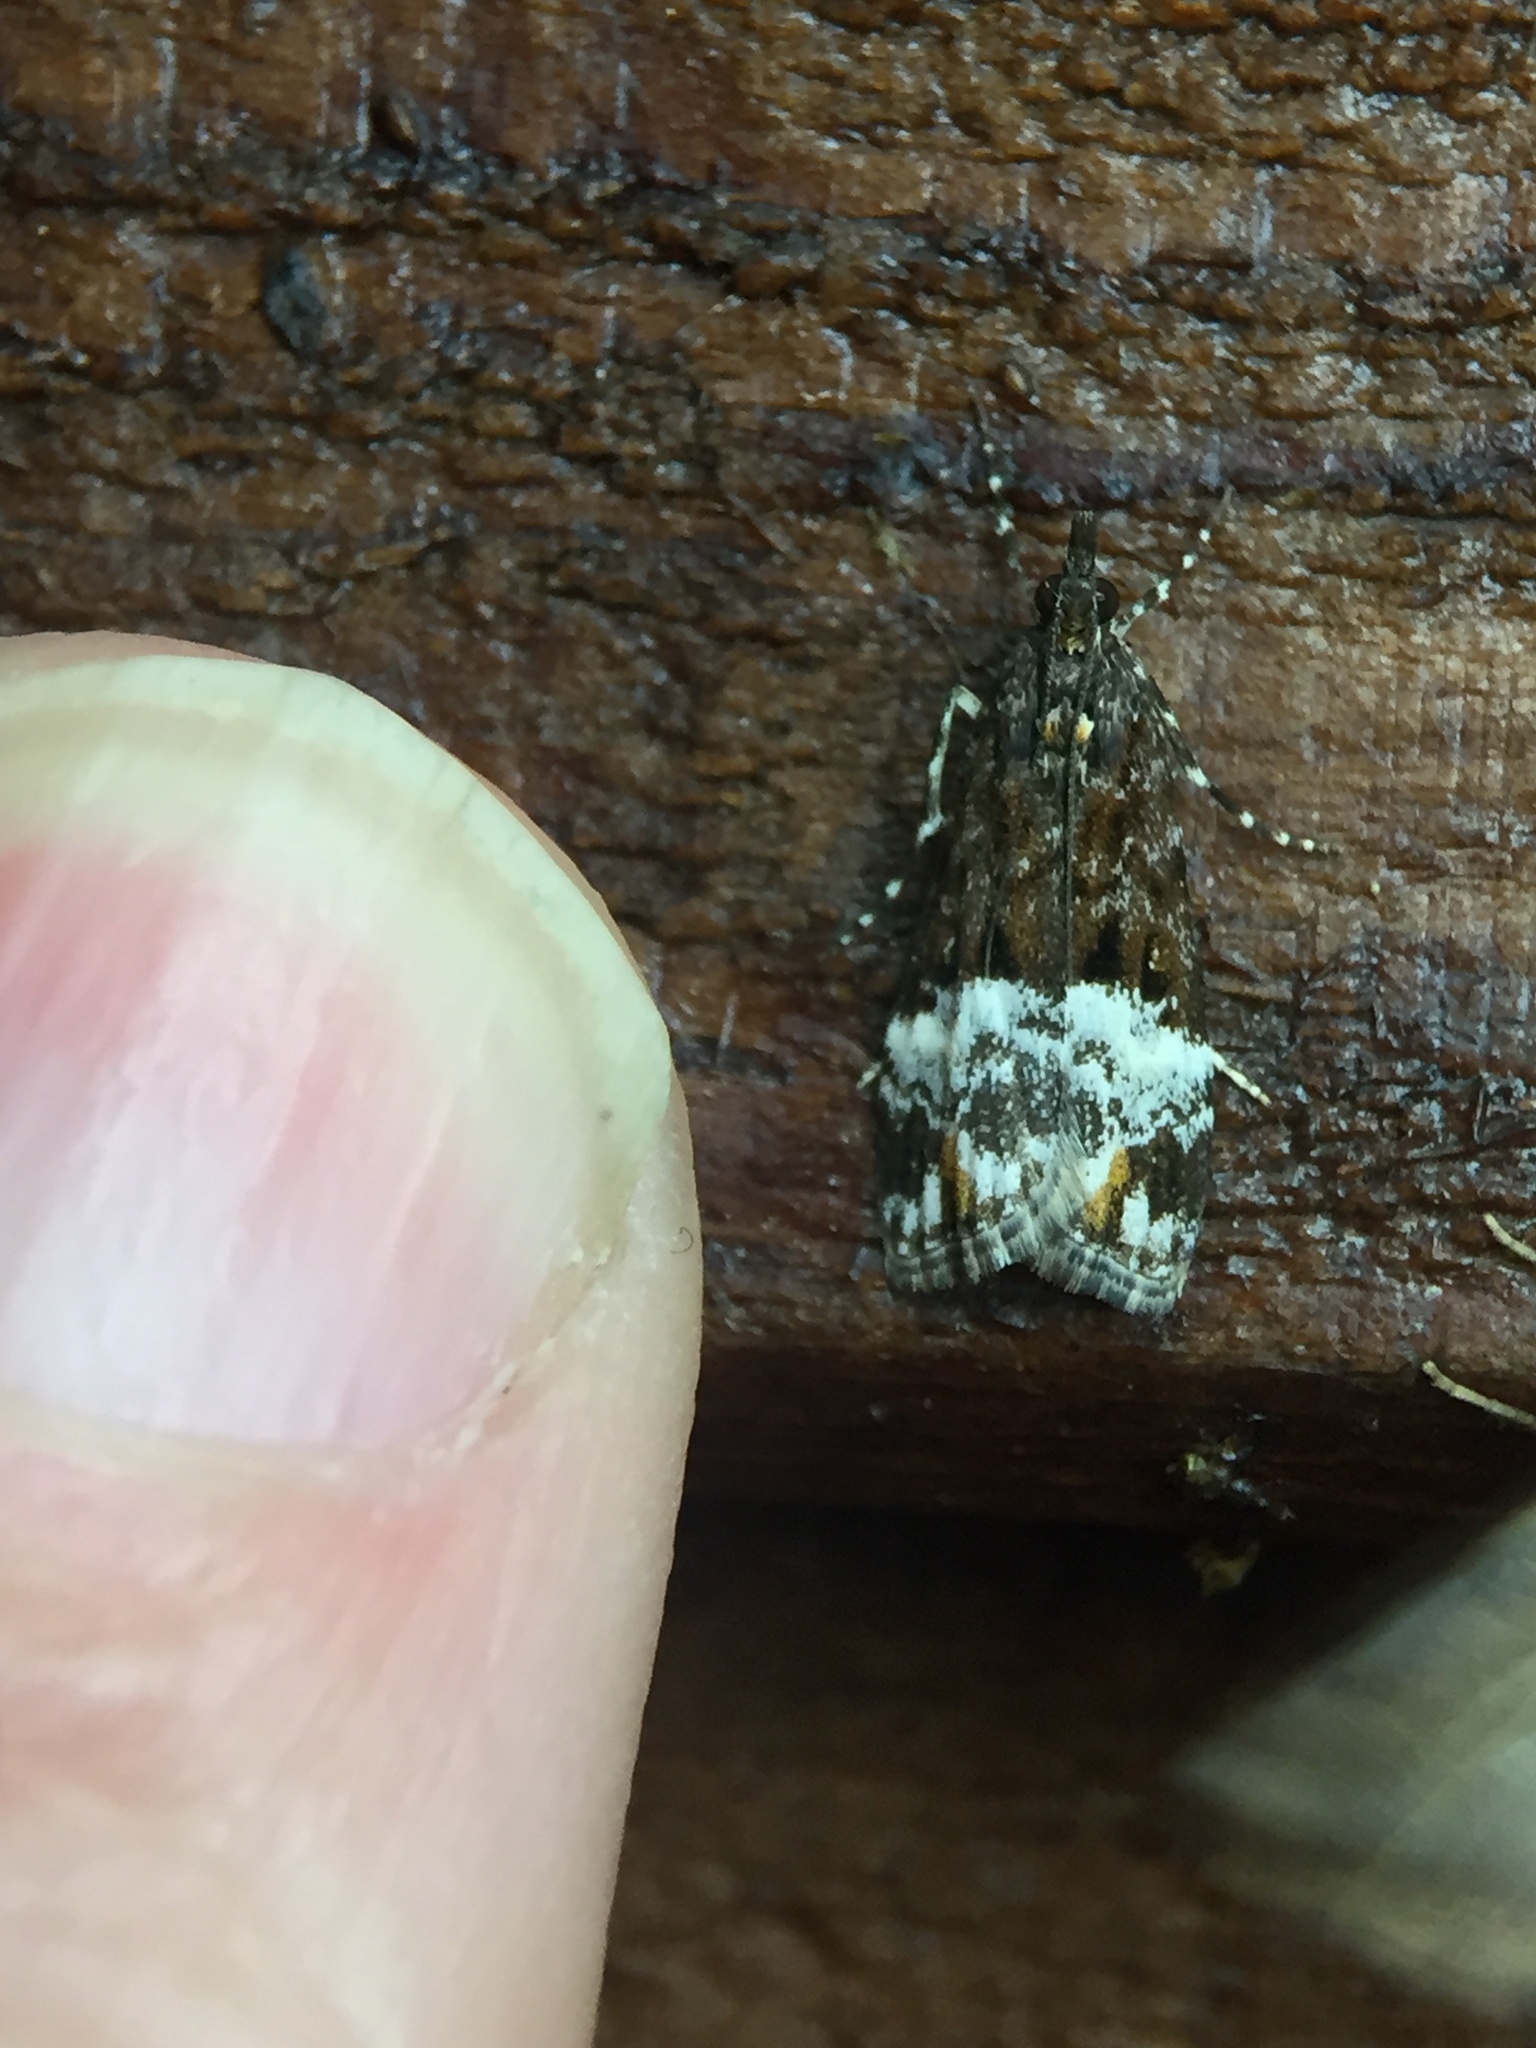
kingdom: Animalia
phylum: Arthropoda
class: Insecta
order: Lepidoptera
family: Crambidae
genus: Scoparia
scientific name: Scoparia minusculalis
